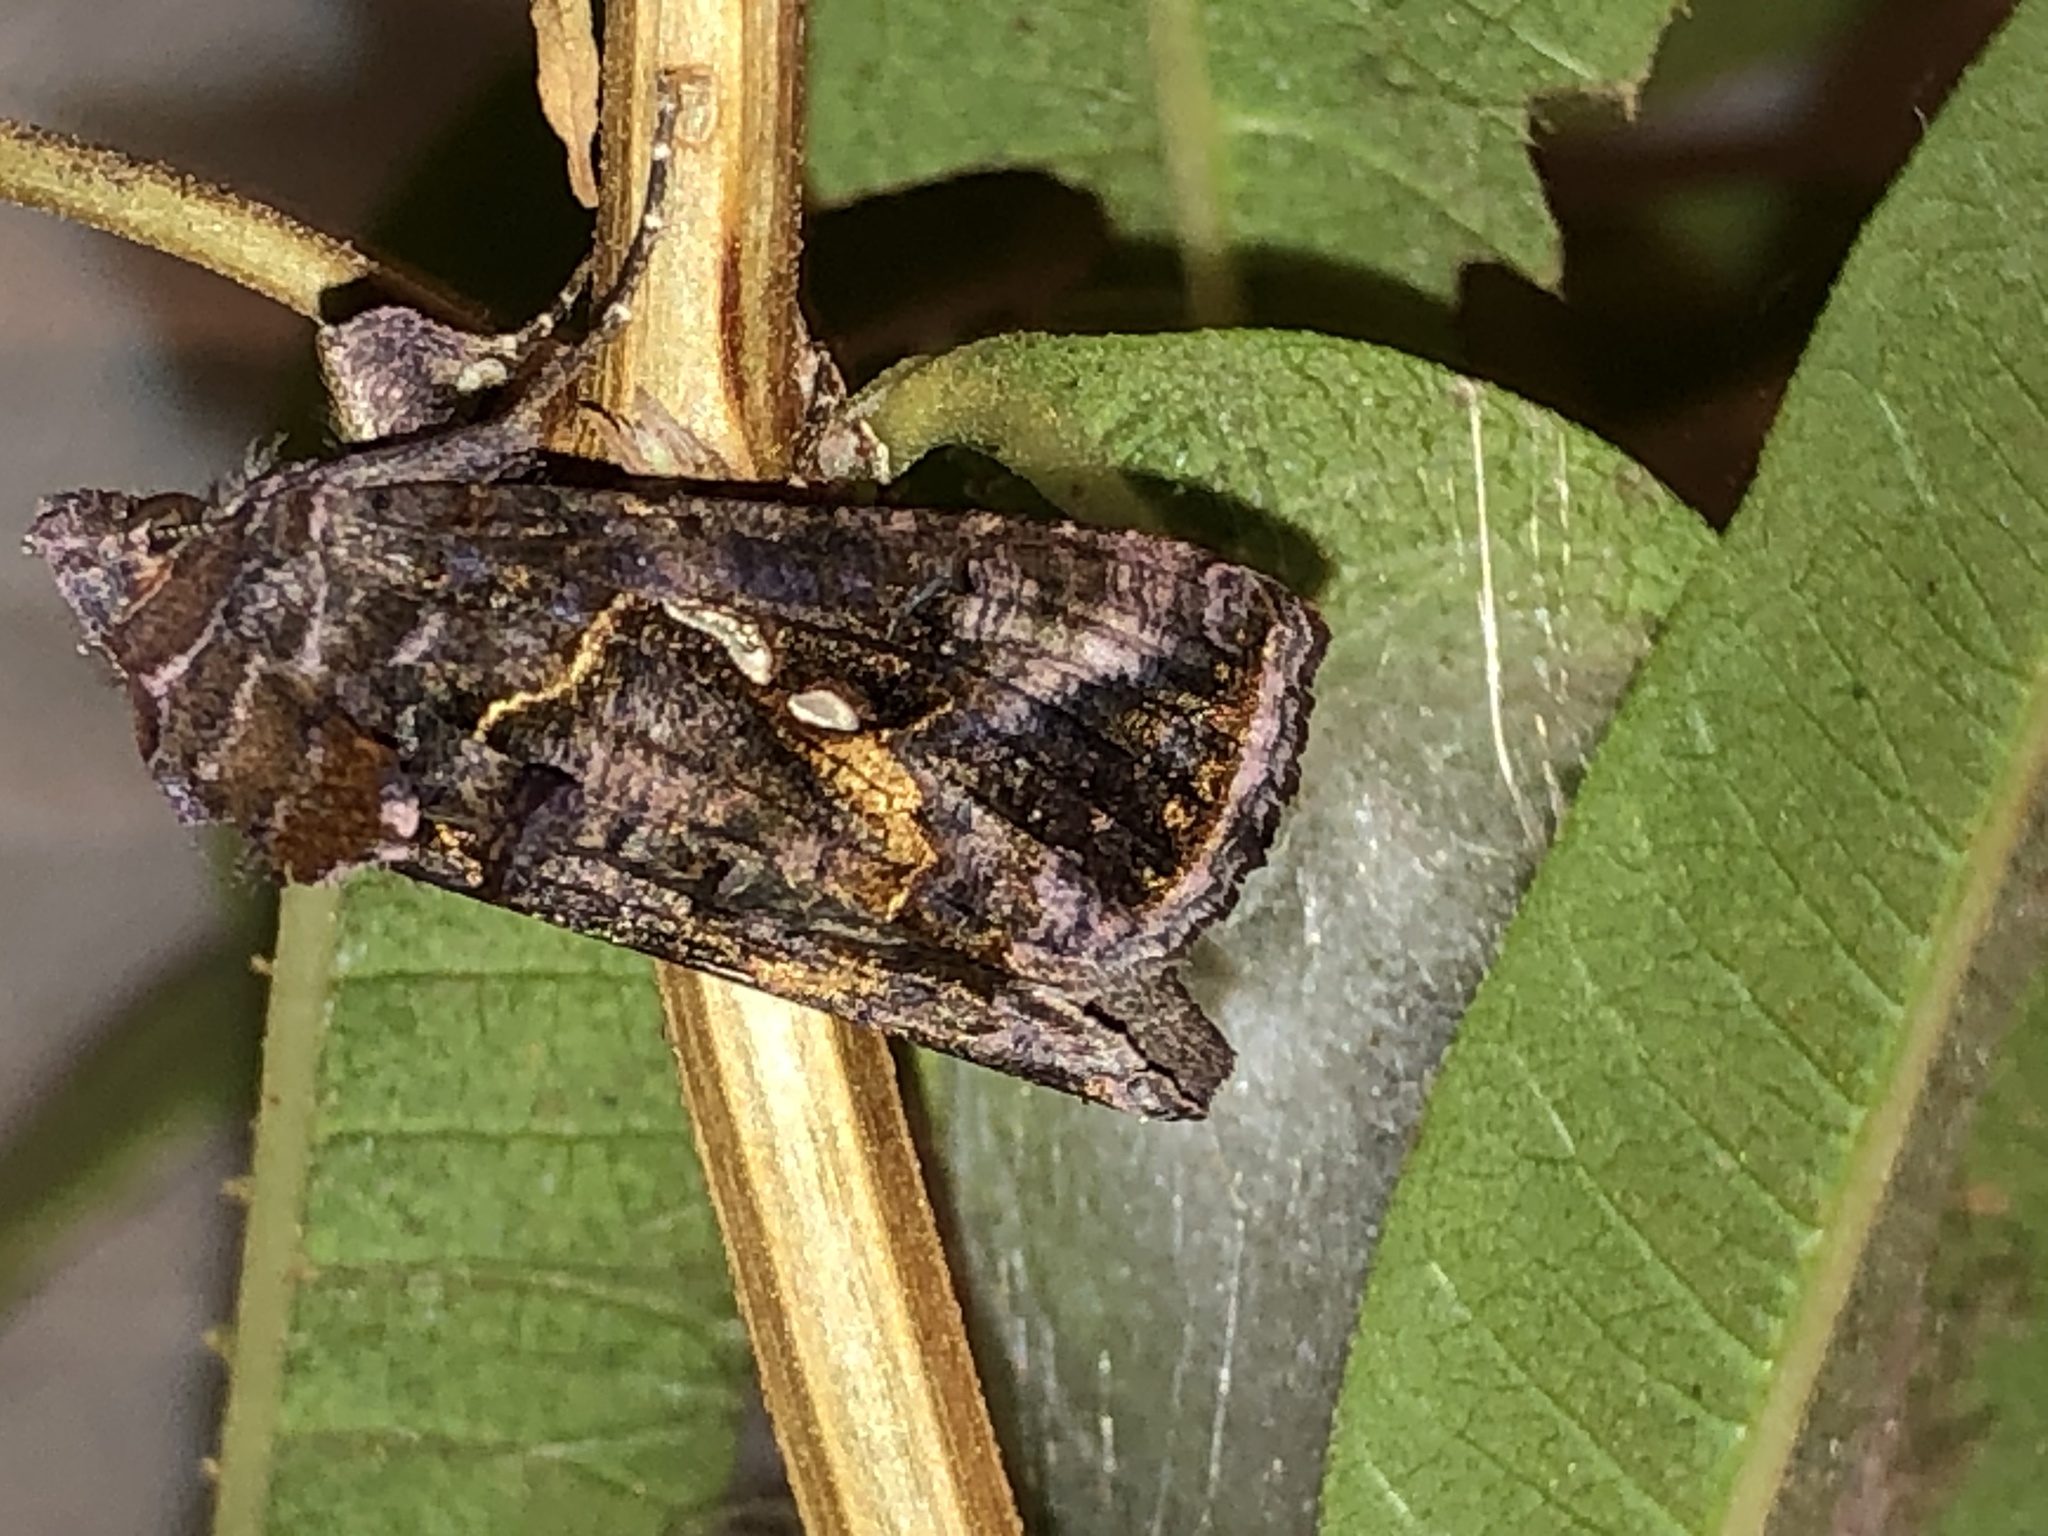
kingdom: Animalia
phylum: Arthropoda
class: Insecta
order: Lepidoptera
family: Noctuidae
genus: Autographa
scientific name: Autographa precationis
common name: Common looper moth
